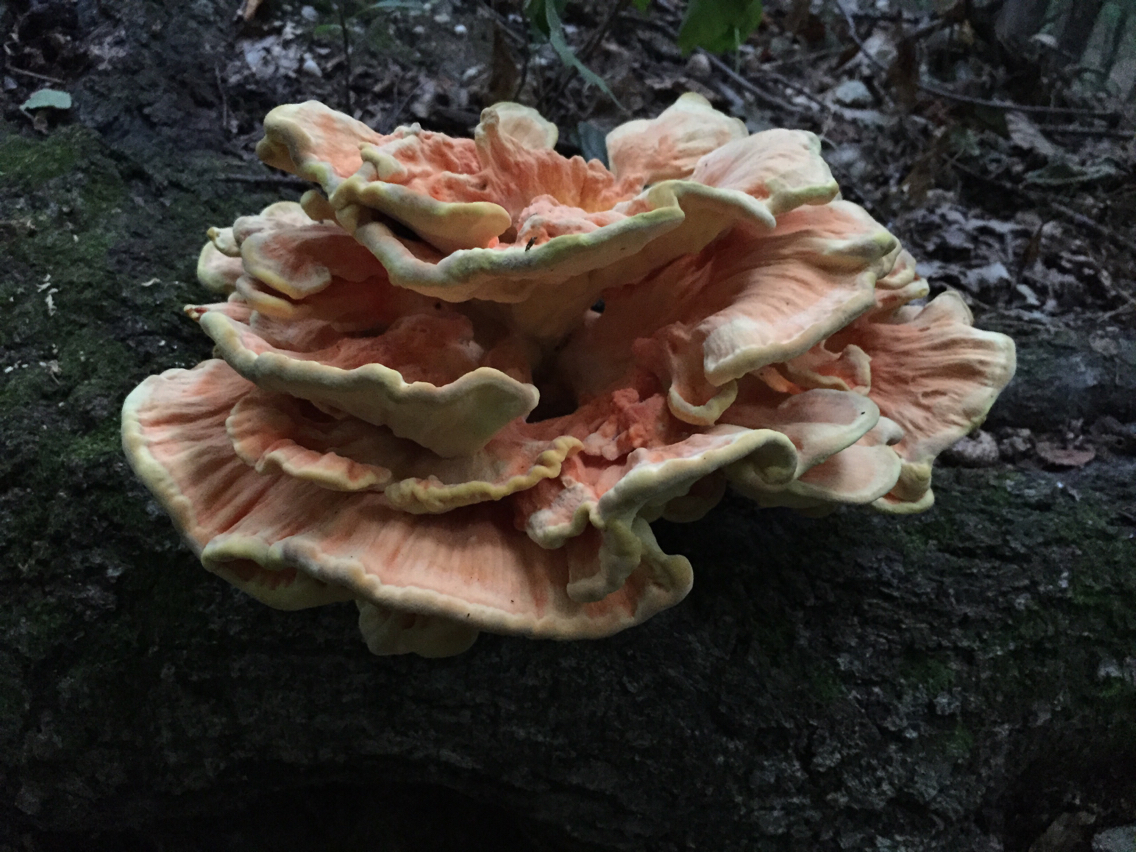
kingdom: Fungi
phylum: Basidiomycota
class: Agaricomycetes
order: Polyporales
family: Laetiporaceae
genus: Laetiporus
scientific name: Laetiporus sulphureus
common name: Chicken of the woods
